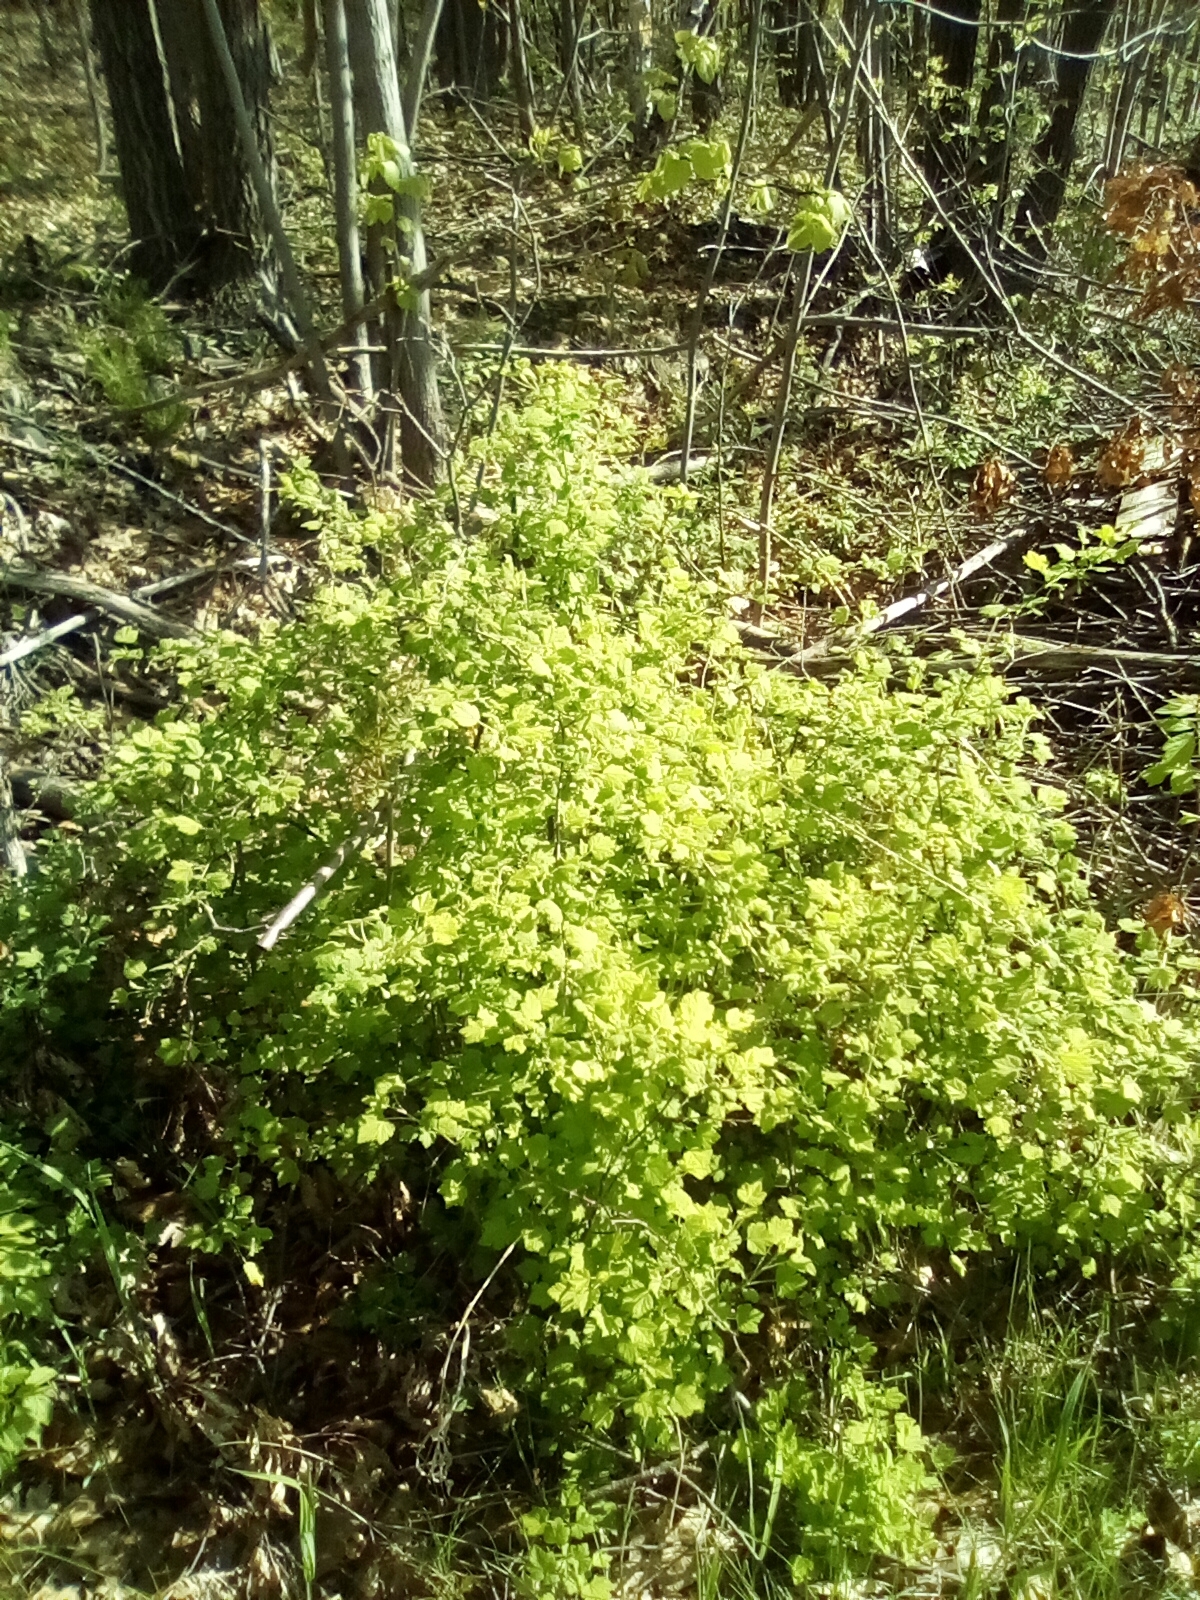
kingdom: Plantae
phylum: Tracheophyta
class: Magnoliopsida
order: Saxifragales
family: Grossulariaceae
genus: Ribes
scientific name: Ribes cynosbati
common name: American gooseberry
